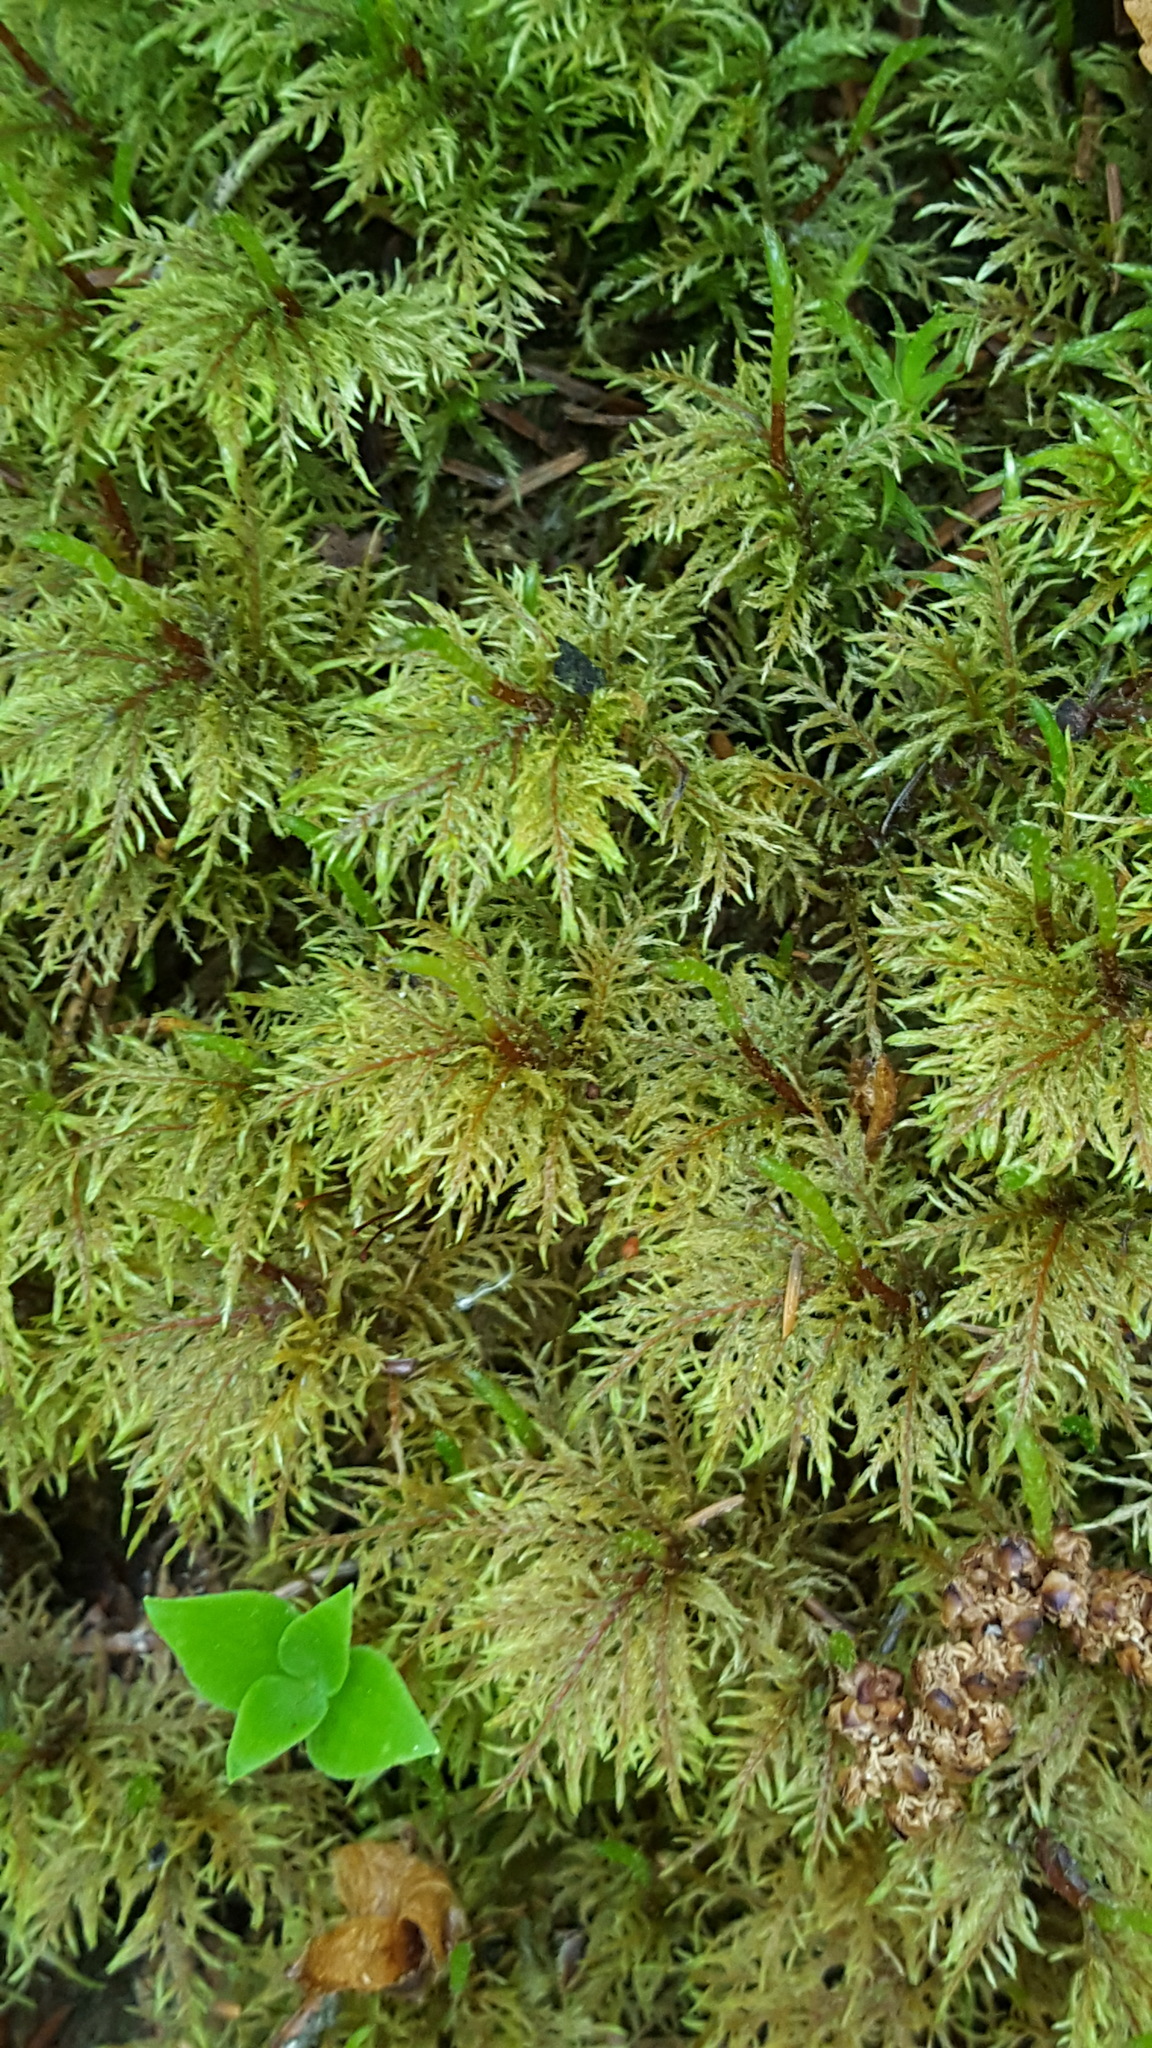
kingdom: Plantae
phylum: Bryophyta
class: Bryopsida
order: Hypnales
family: Hylocomiaceae
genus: Hylocomium
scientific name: Hylocomium splendens
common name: Stairstep moss
